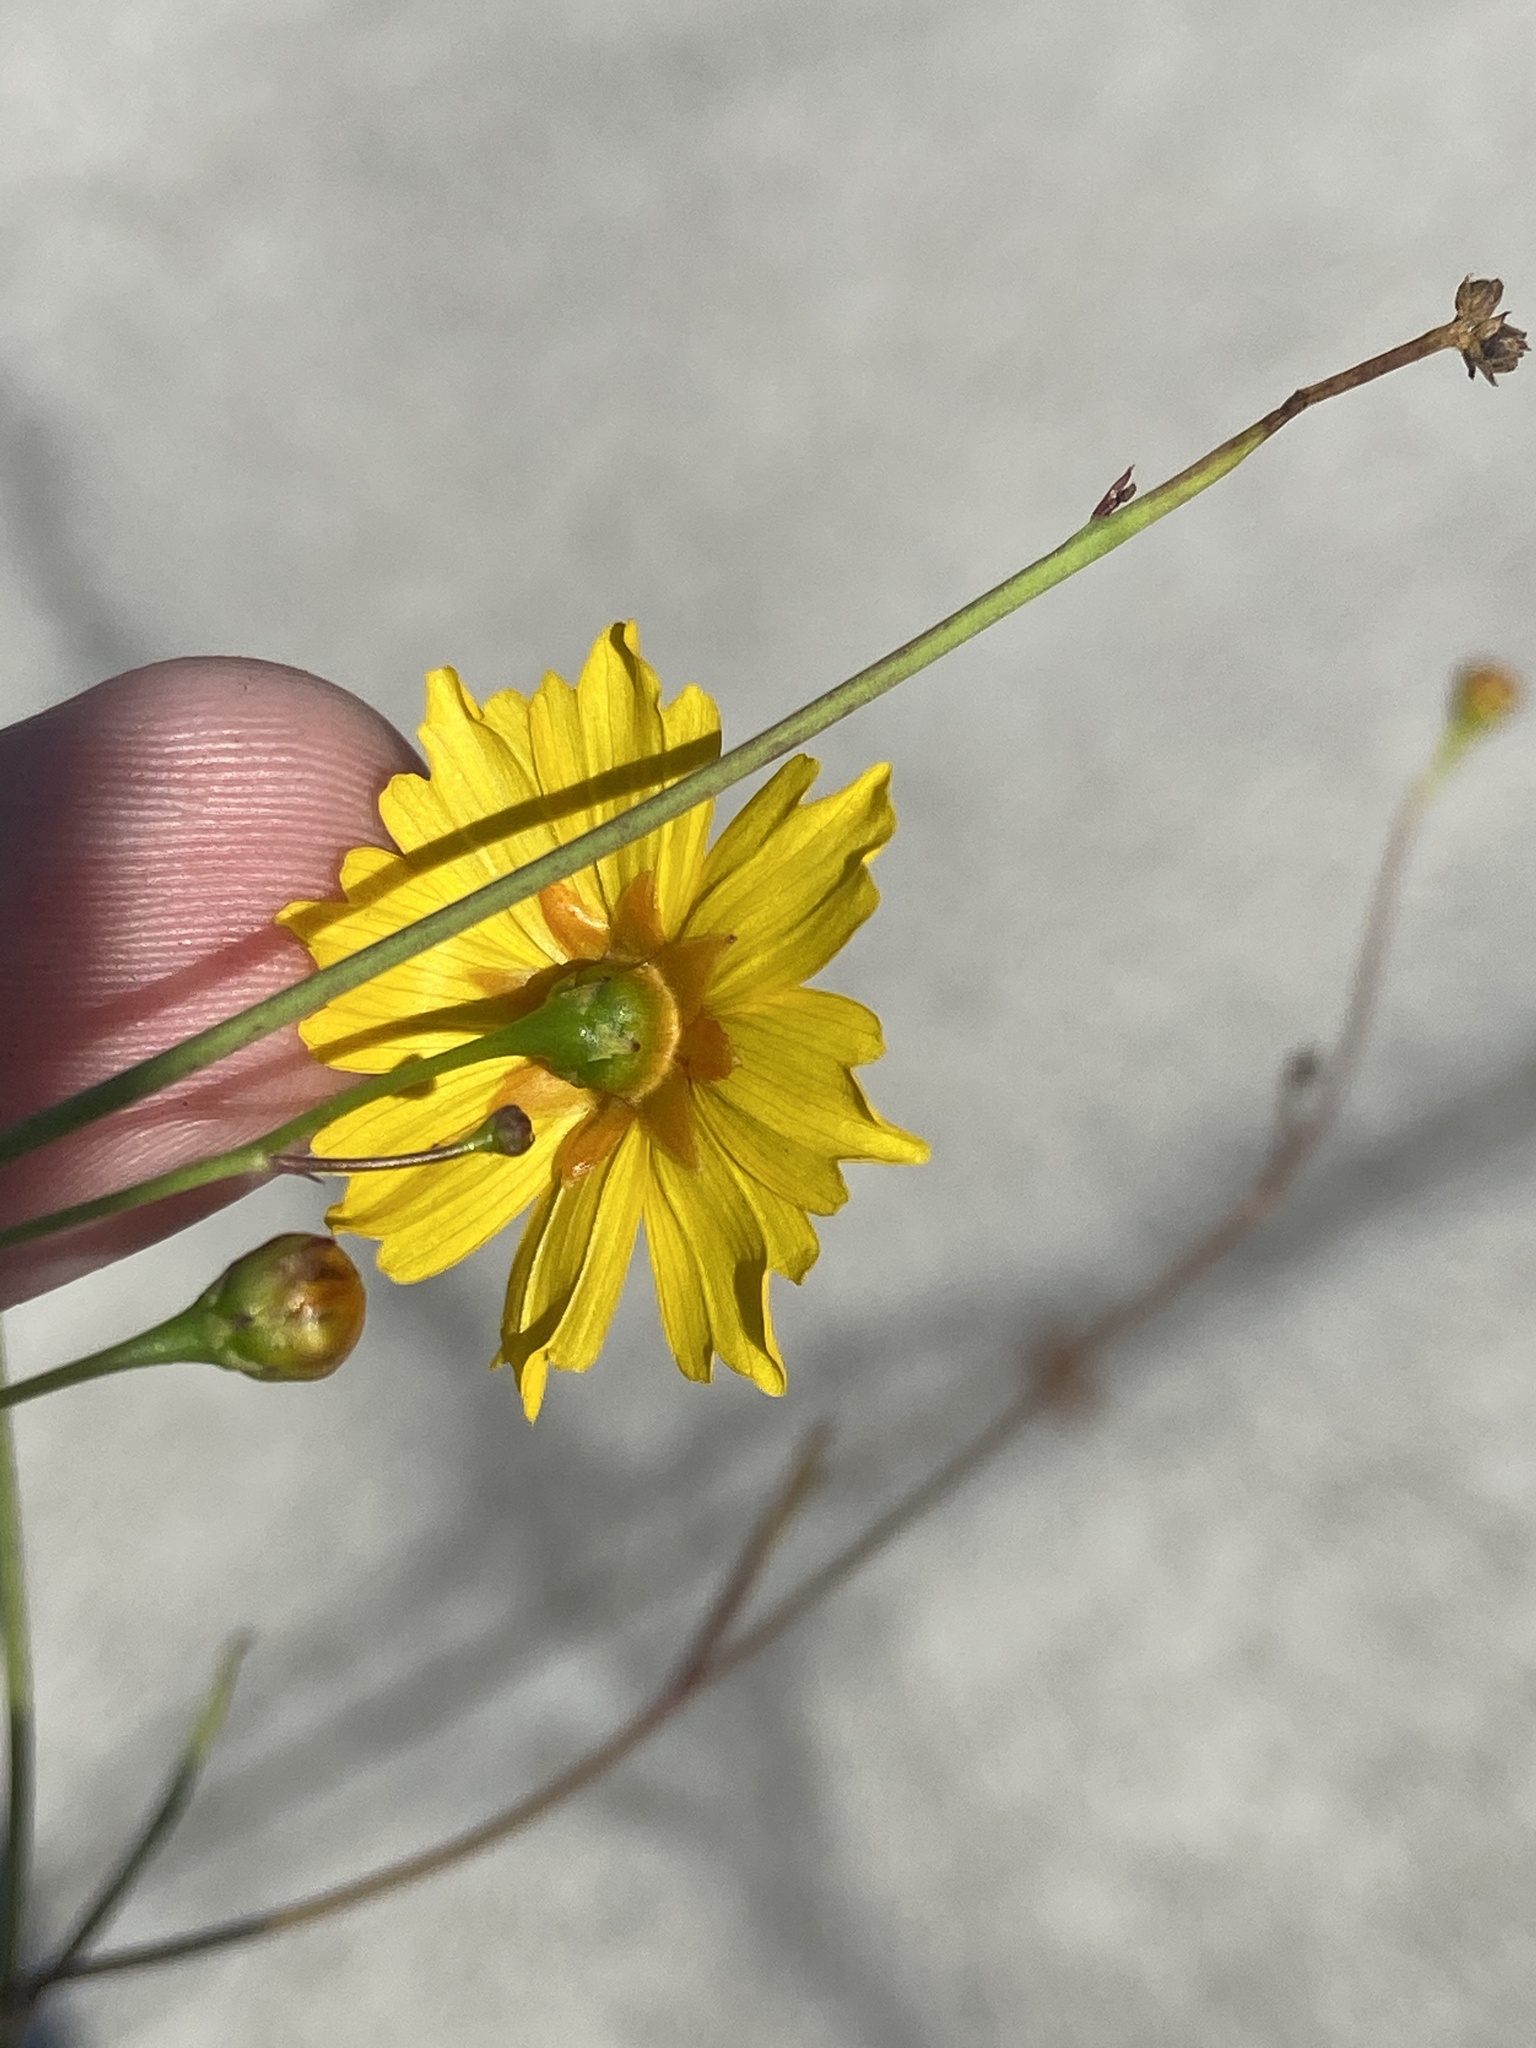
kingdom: Plantae
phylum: Tracheophyta
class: Magnoliopsida
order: Asterales
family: Asteraceae
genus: Coreopsis
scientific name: Coreopsis leavenworthii
